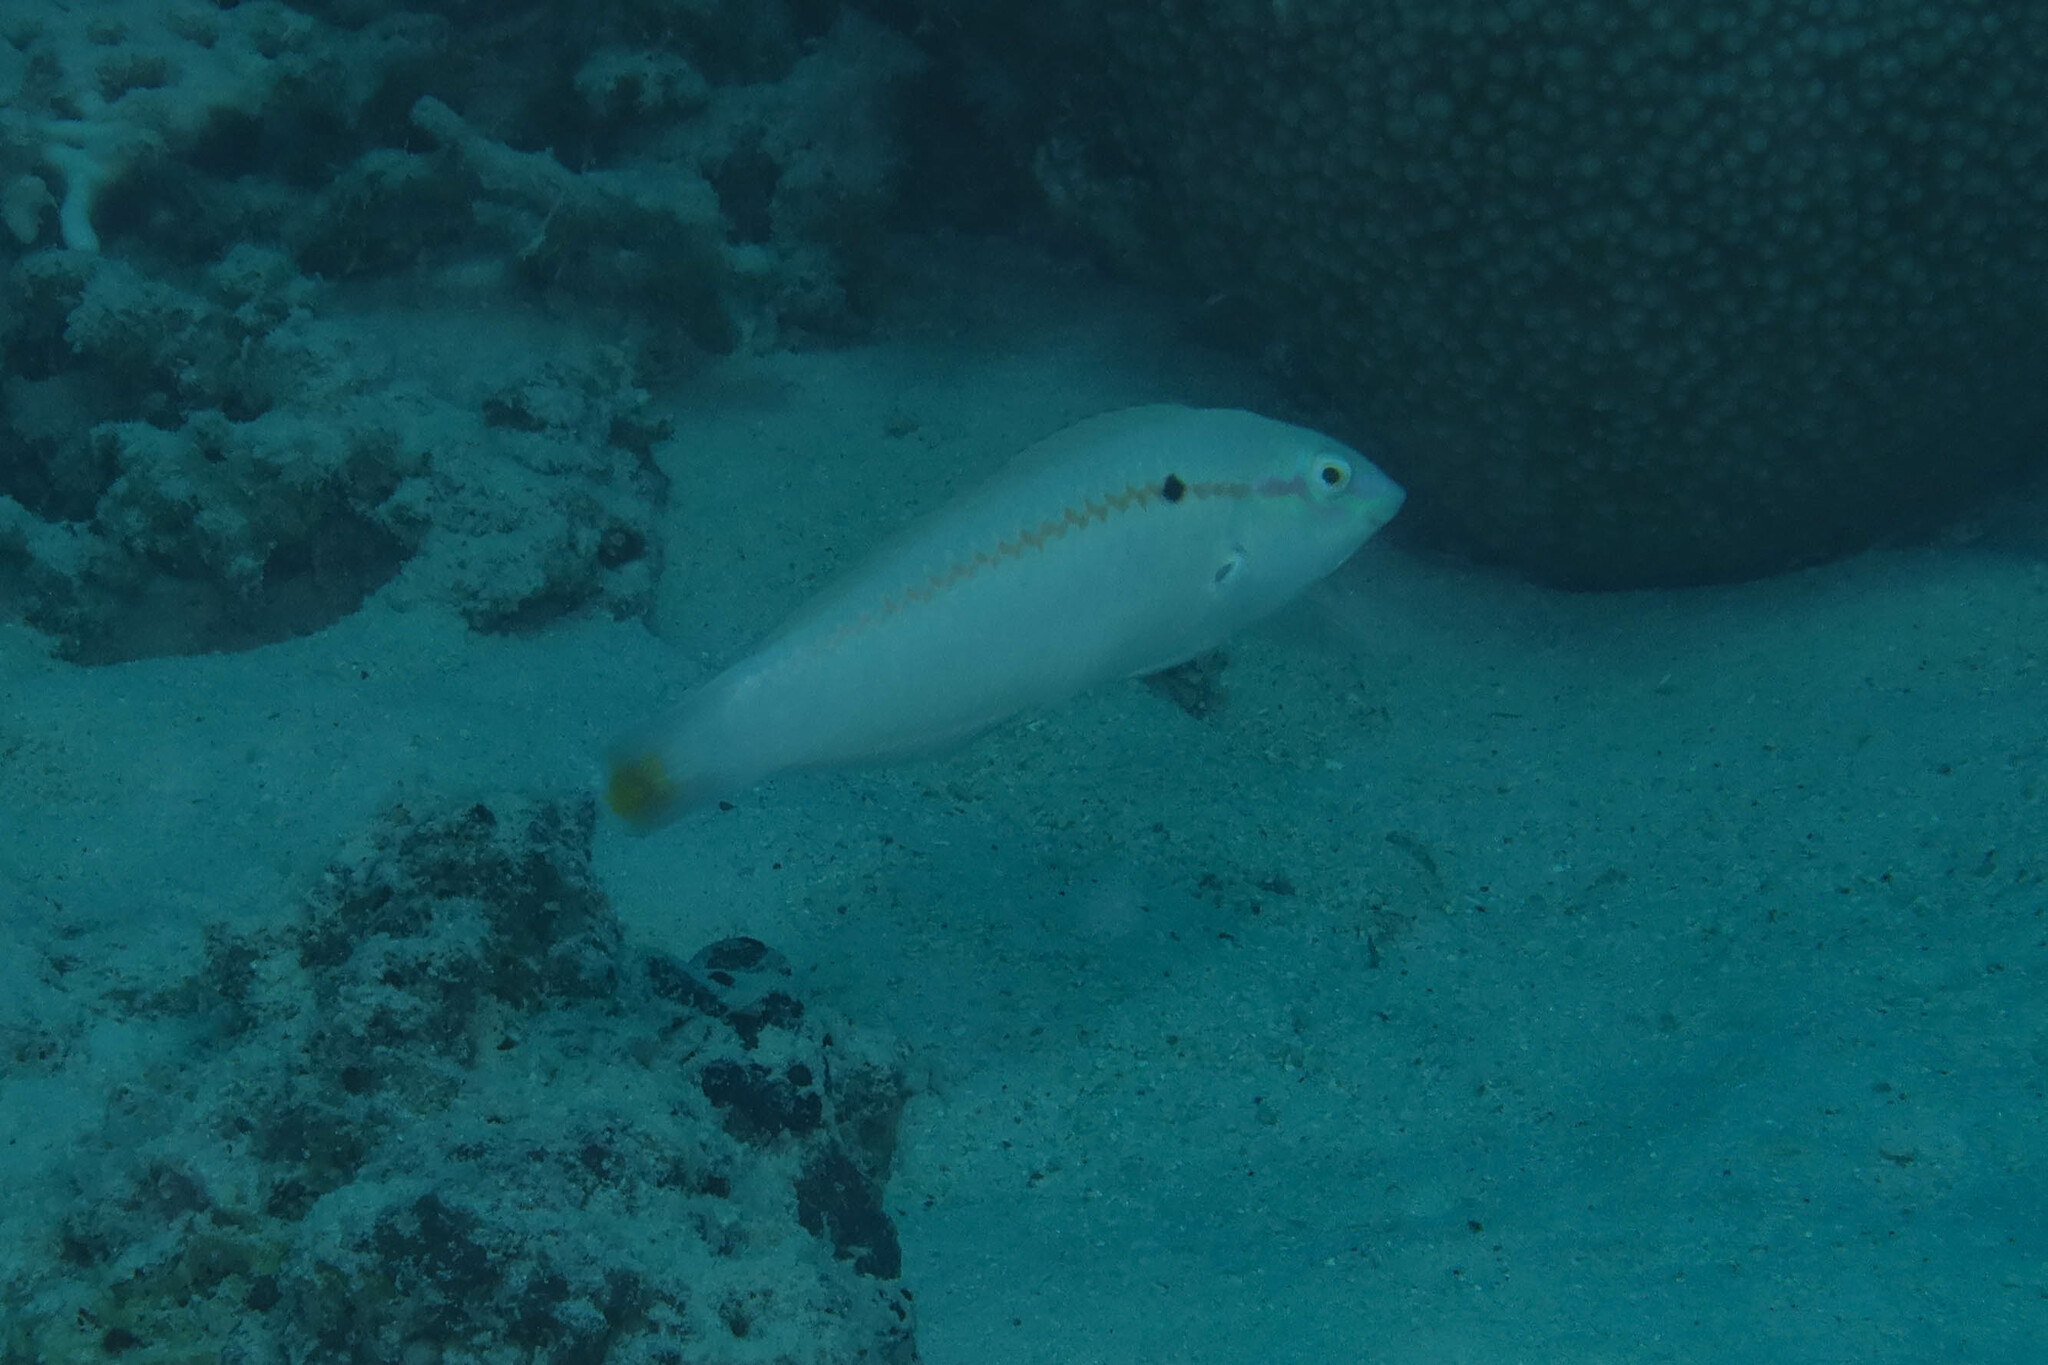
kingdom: Animalia
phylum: Chordata
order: Perciformes
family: Labridae
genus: Halichoeres
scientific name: Halichoeres scapularis
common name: Brownbanded wrasse
